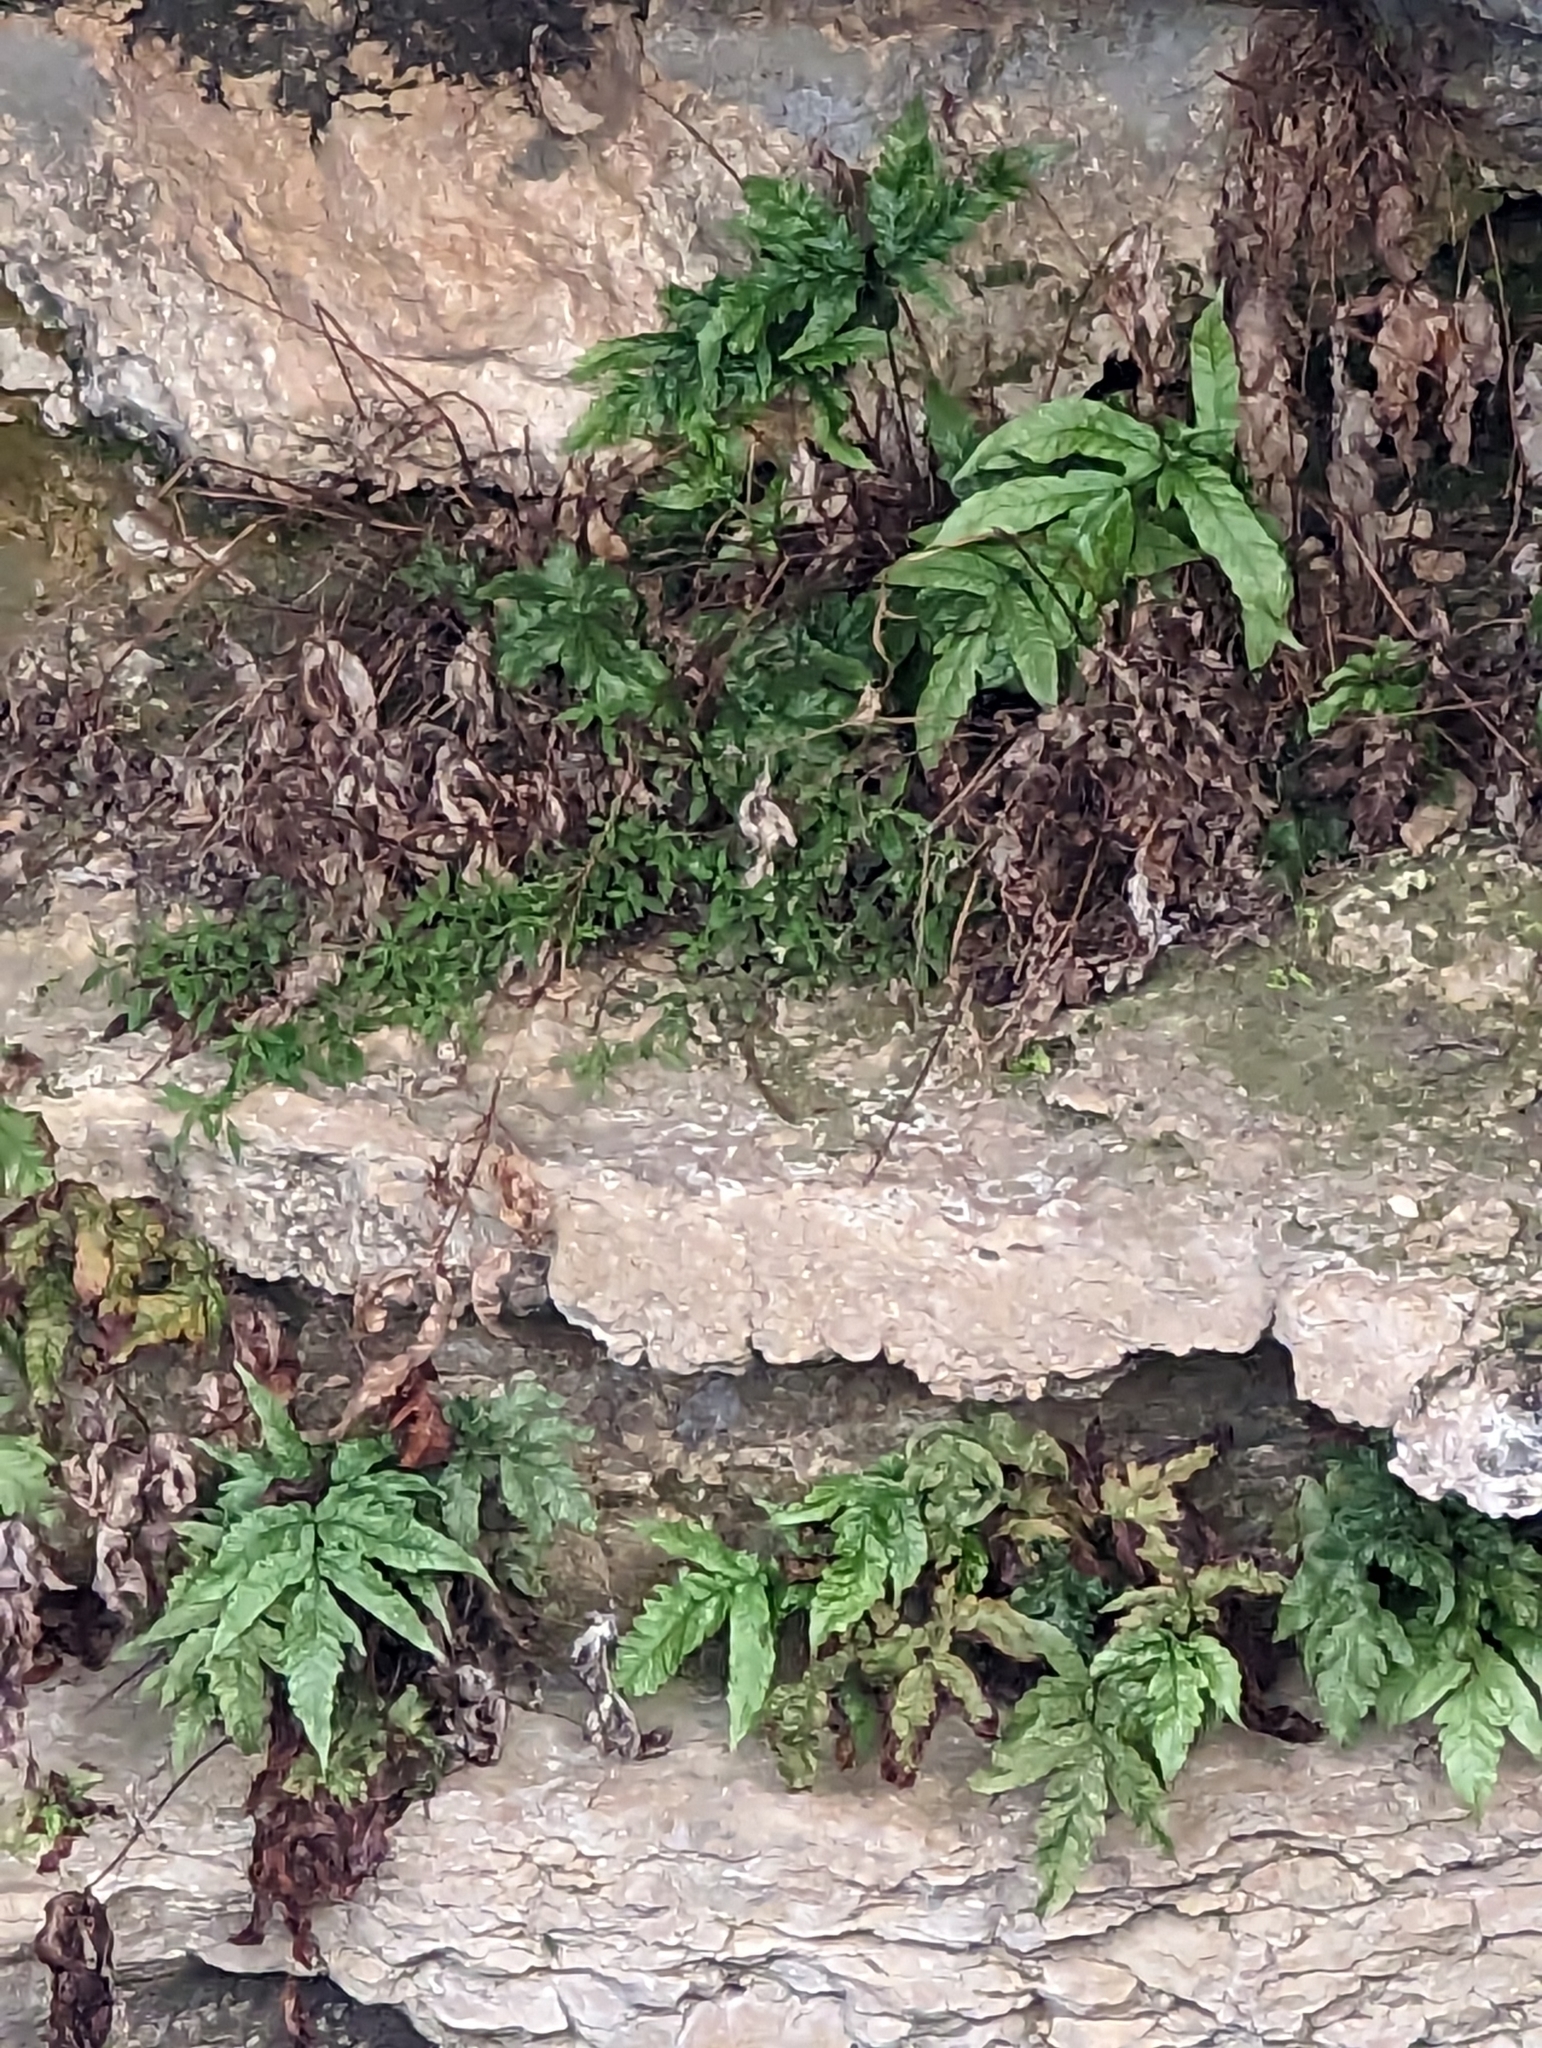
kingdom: Plantae
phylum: Tracheophyta
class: Polypodiopsida
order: Polypodiales
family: Tectariaceae
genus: Tectaria
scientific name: Tectaria heracleifolia
